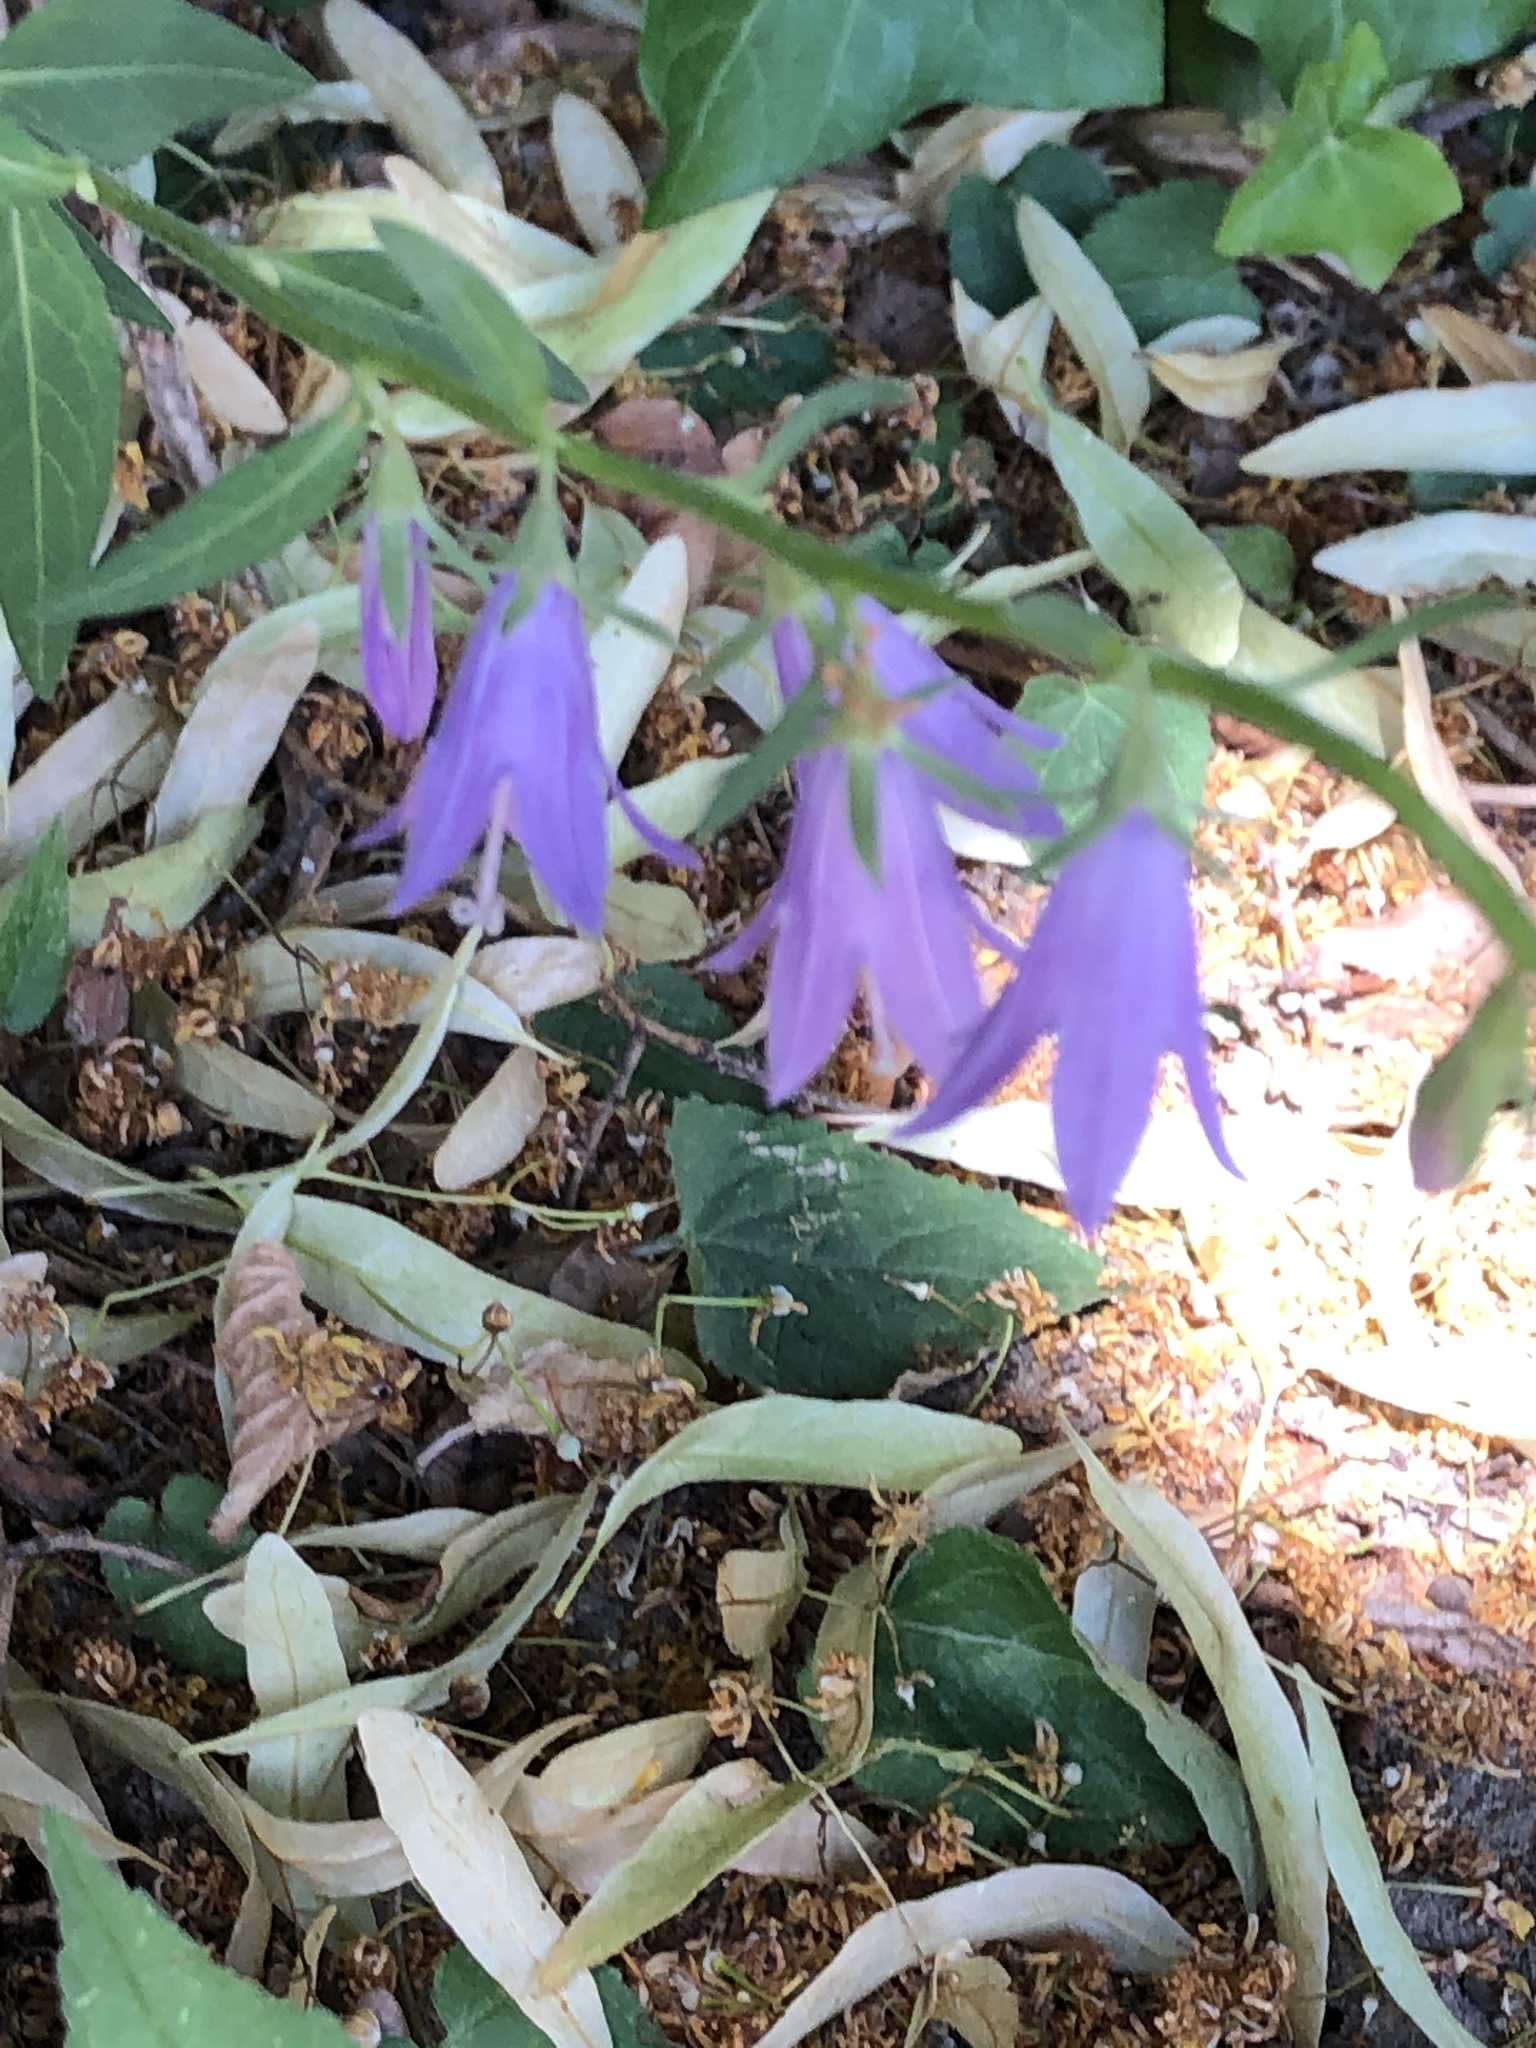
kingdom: Plantae
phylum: Tracheophyta
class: Magnoliopsida
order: Asterales
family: Campanulaceae
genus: Campanula
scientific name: Campanula rapunculoides
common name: Creeping bellflower
